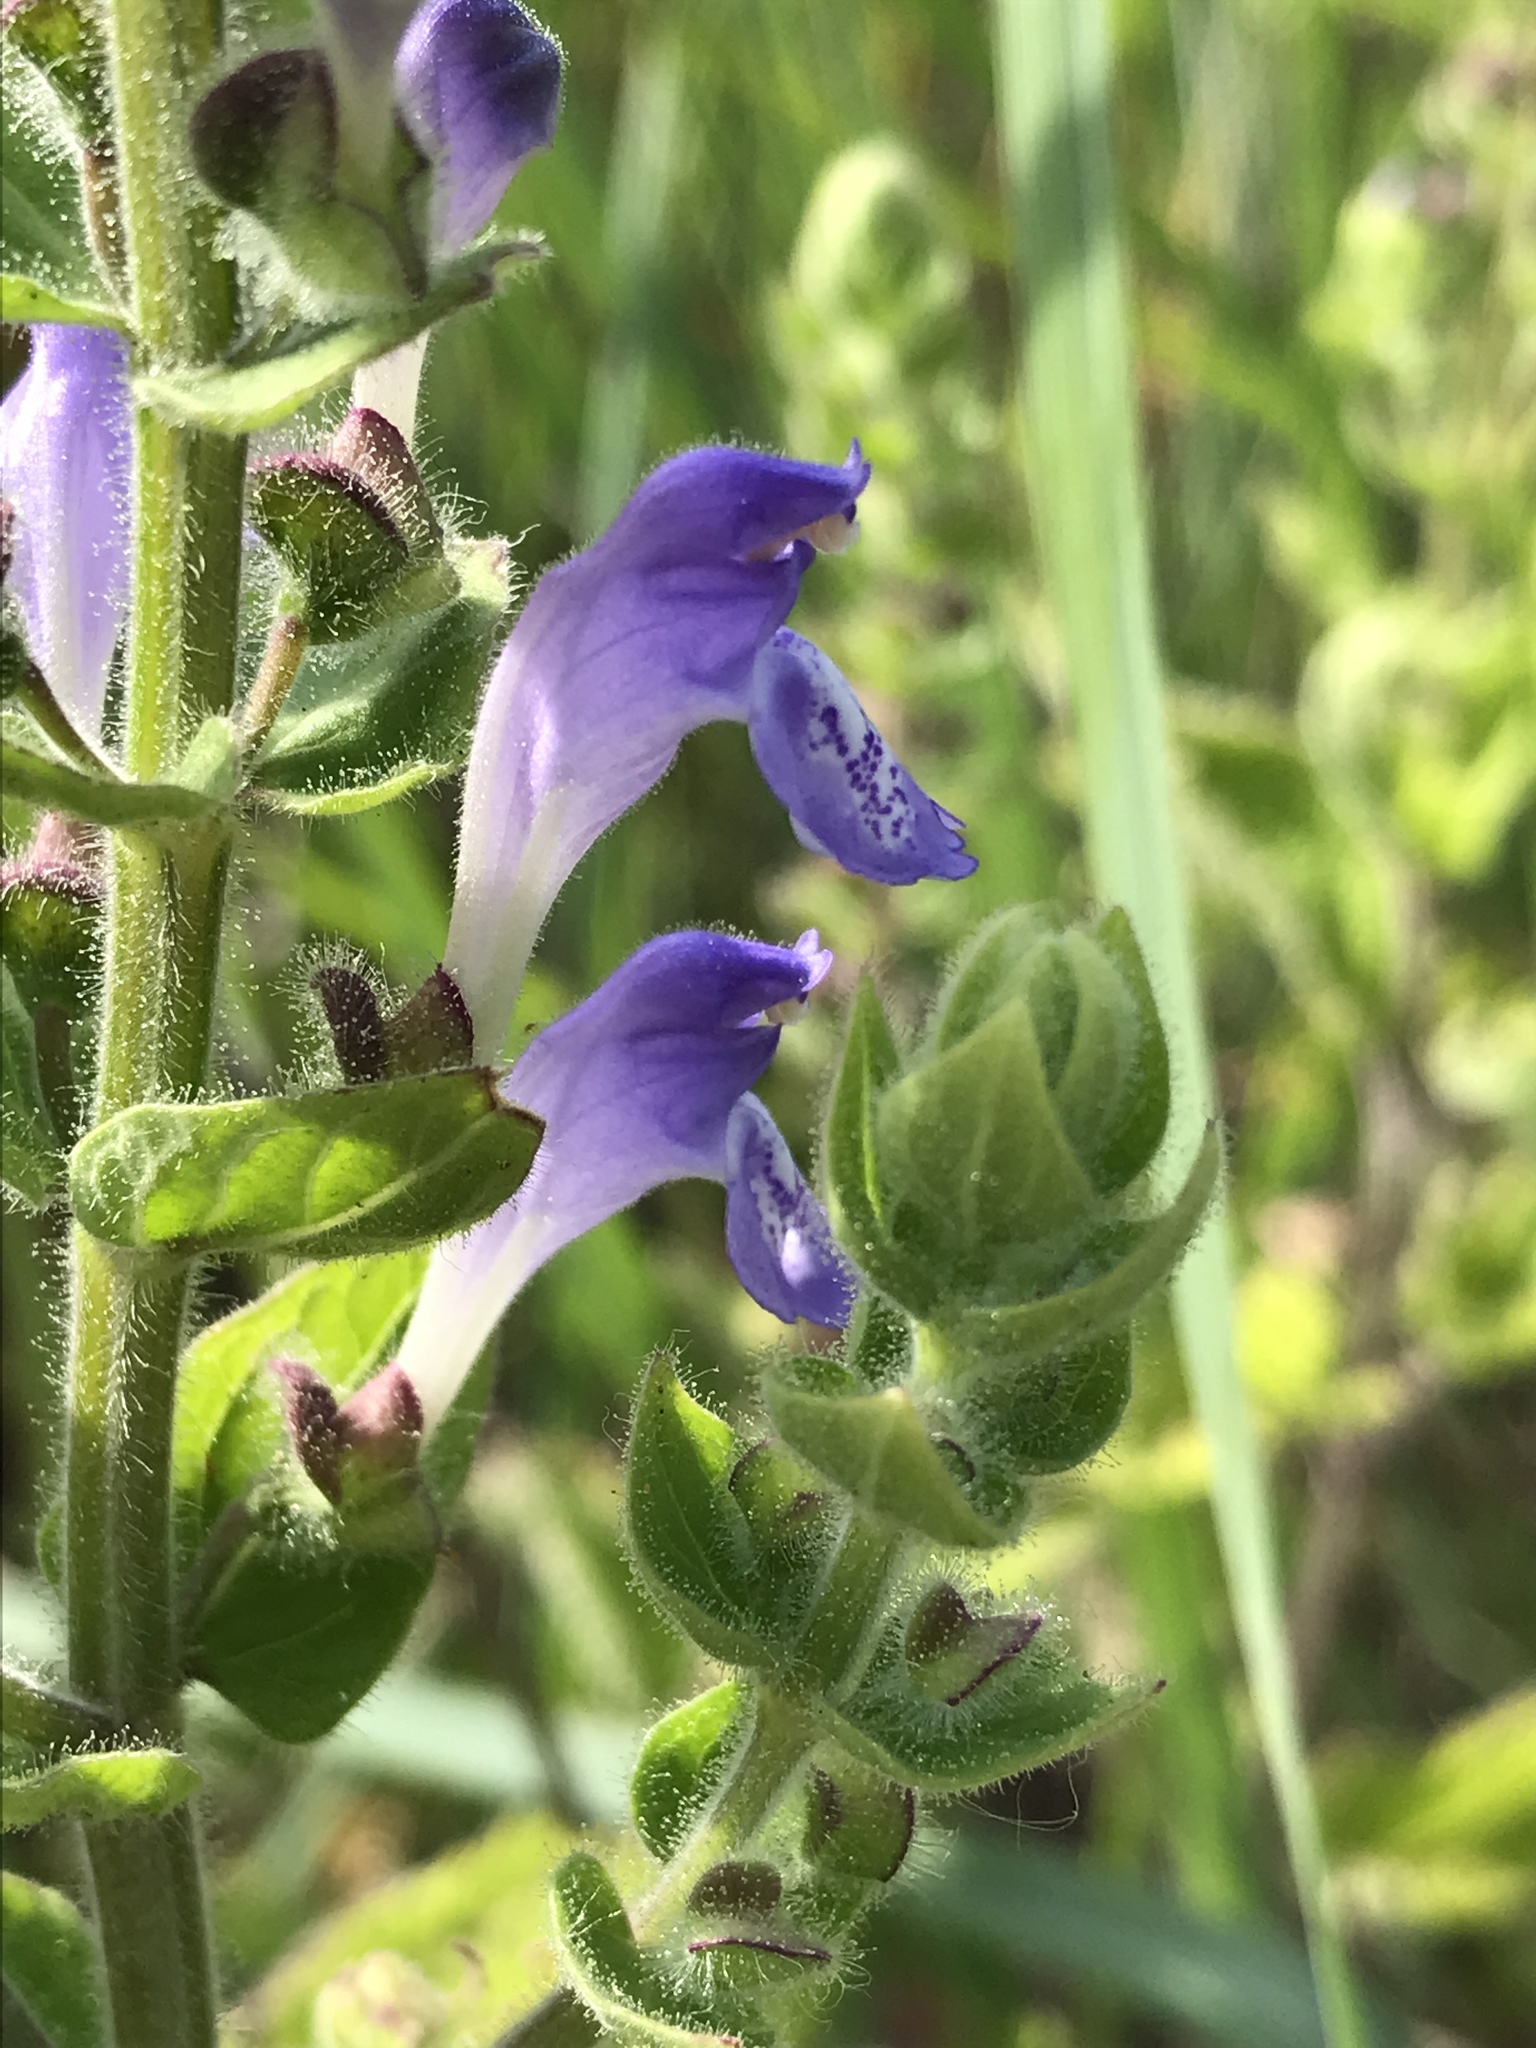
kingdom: Plantae
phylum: Tracheophyta
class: Magnoliopsida
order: Lamiales
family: Lamiaceae
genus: Scutellaria
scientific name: Scutellaria ovata
